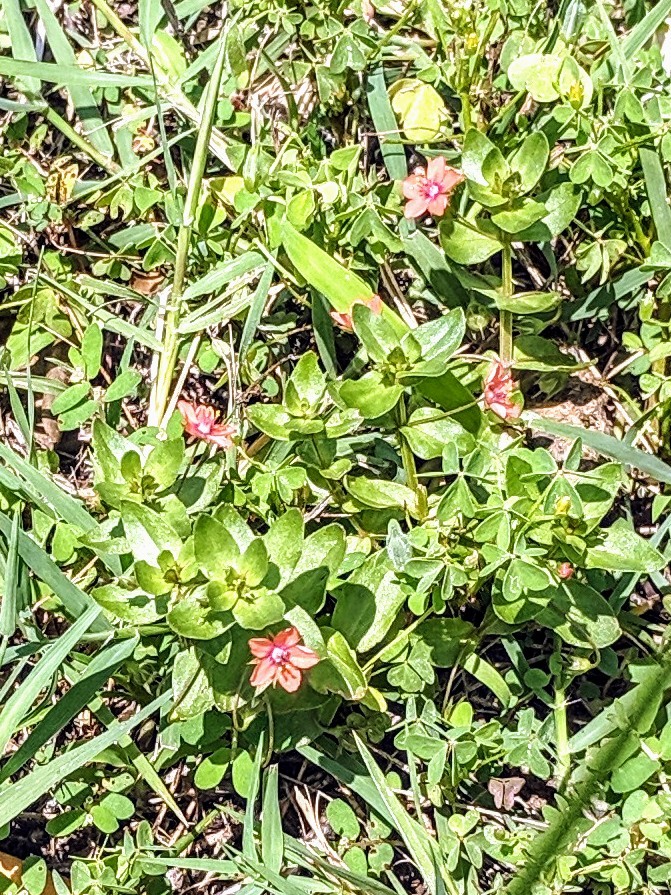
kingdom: Plantae
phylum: Tracheophyta
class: Magnoliopsida
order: Ericales
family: Primulaceae
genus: Lysimachia
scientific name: Lysimachia arvensis
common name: Scarlet pimpernel
